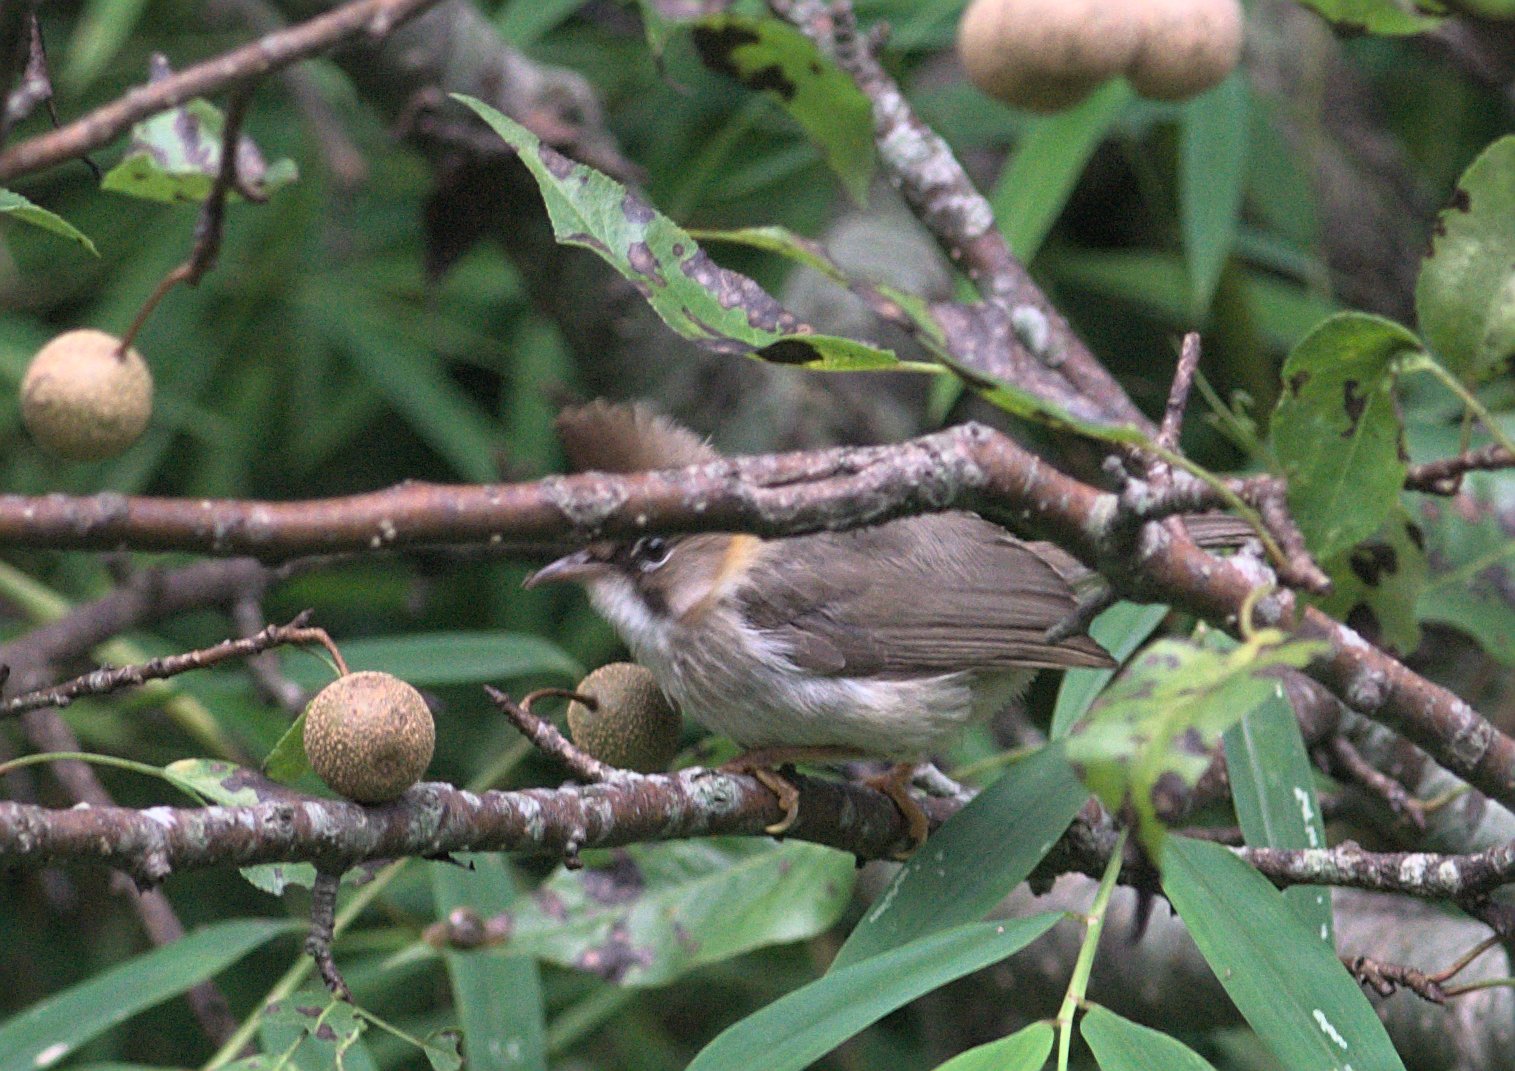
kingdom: Animalia
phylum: Chordata
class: Aves
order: Passeriformes
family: Zosteropidae
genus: Yuhina
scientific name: Yuhina flavicollis
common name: Whiskered yuhina
